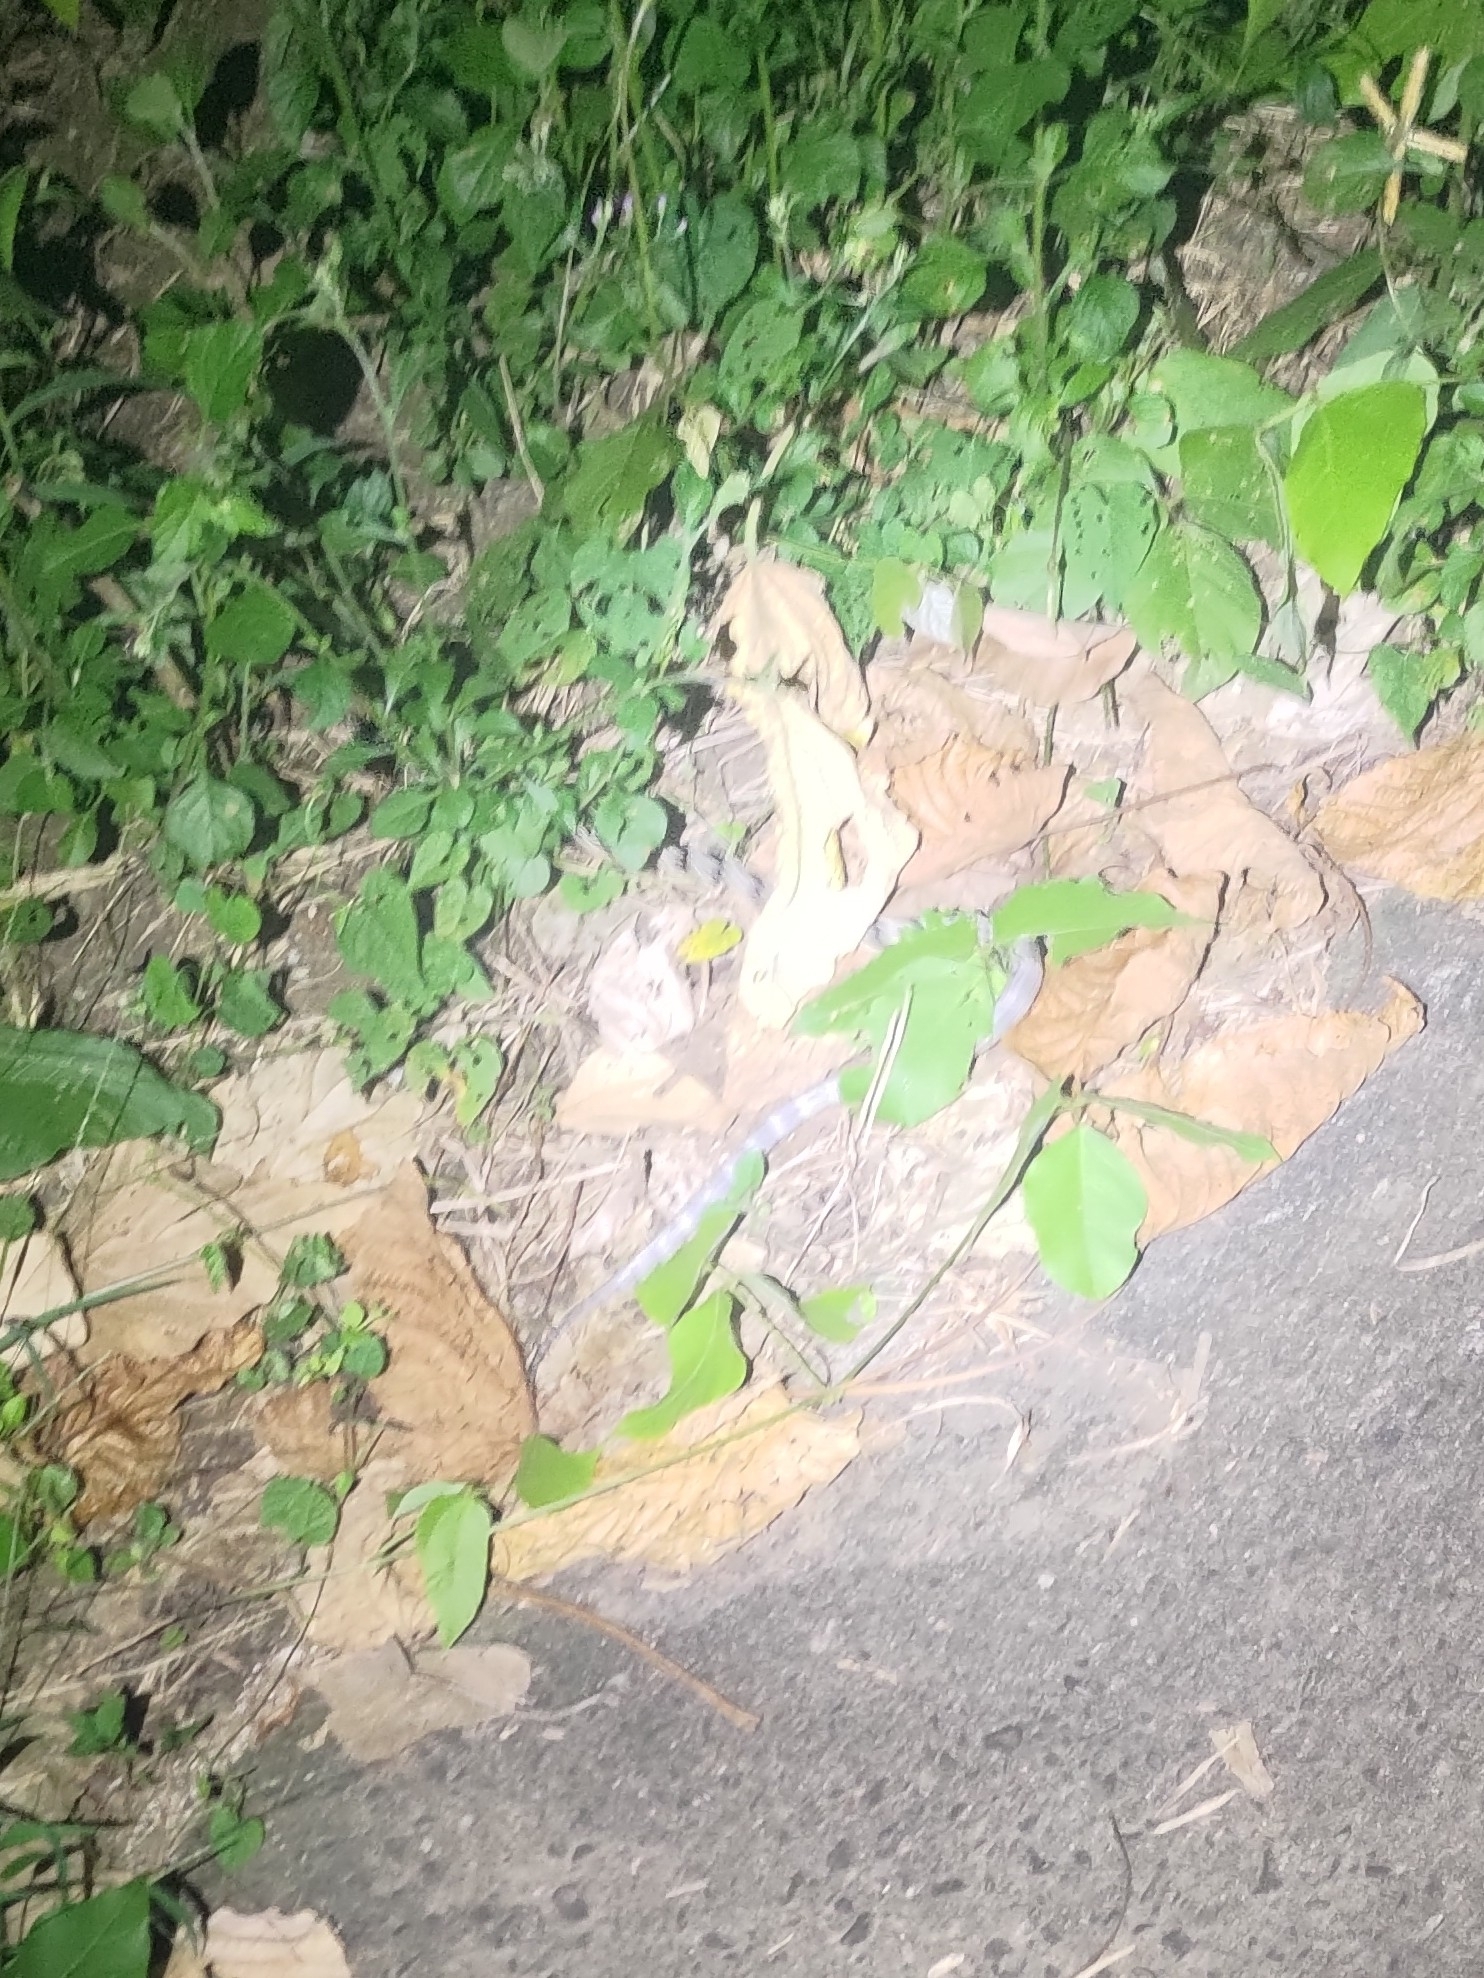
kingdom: Animalia
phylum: Chordata
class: Squamata
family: Elapidae
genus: Bungarus
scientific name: Bungarus multicinctus
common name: Many-banded krait
